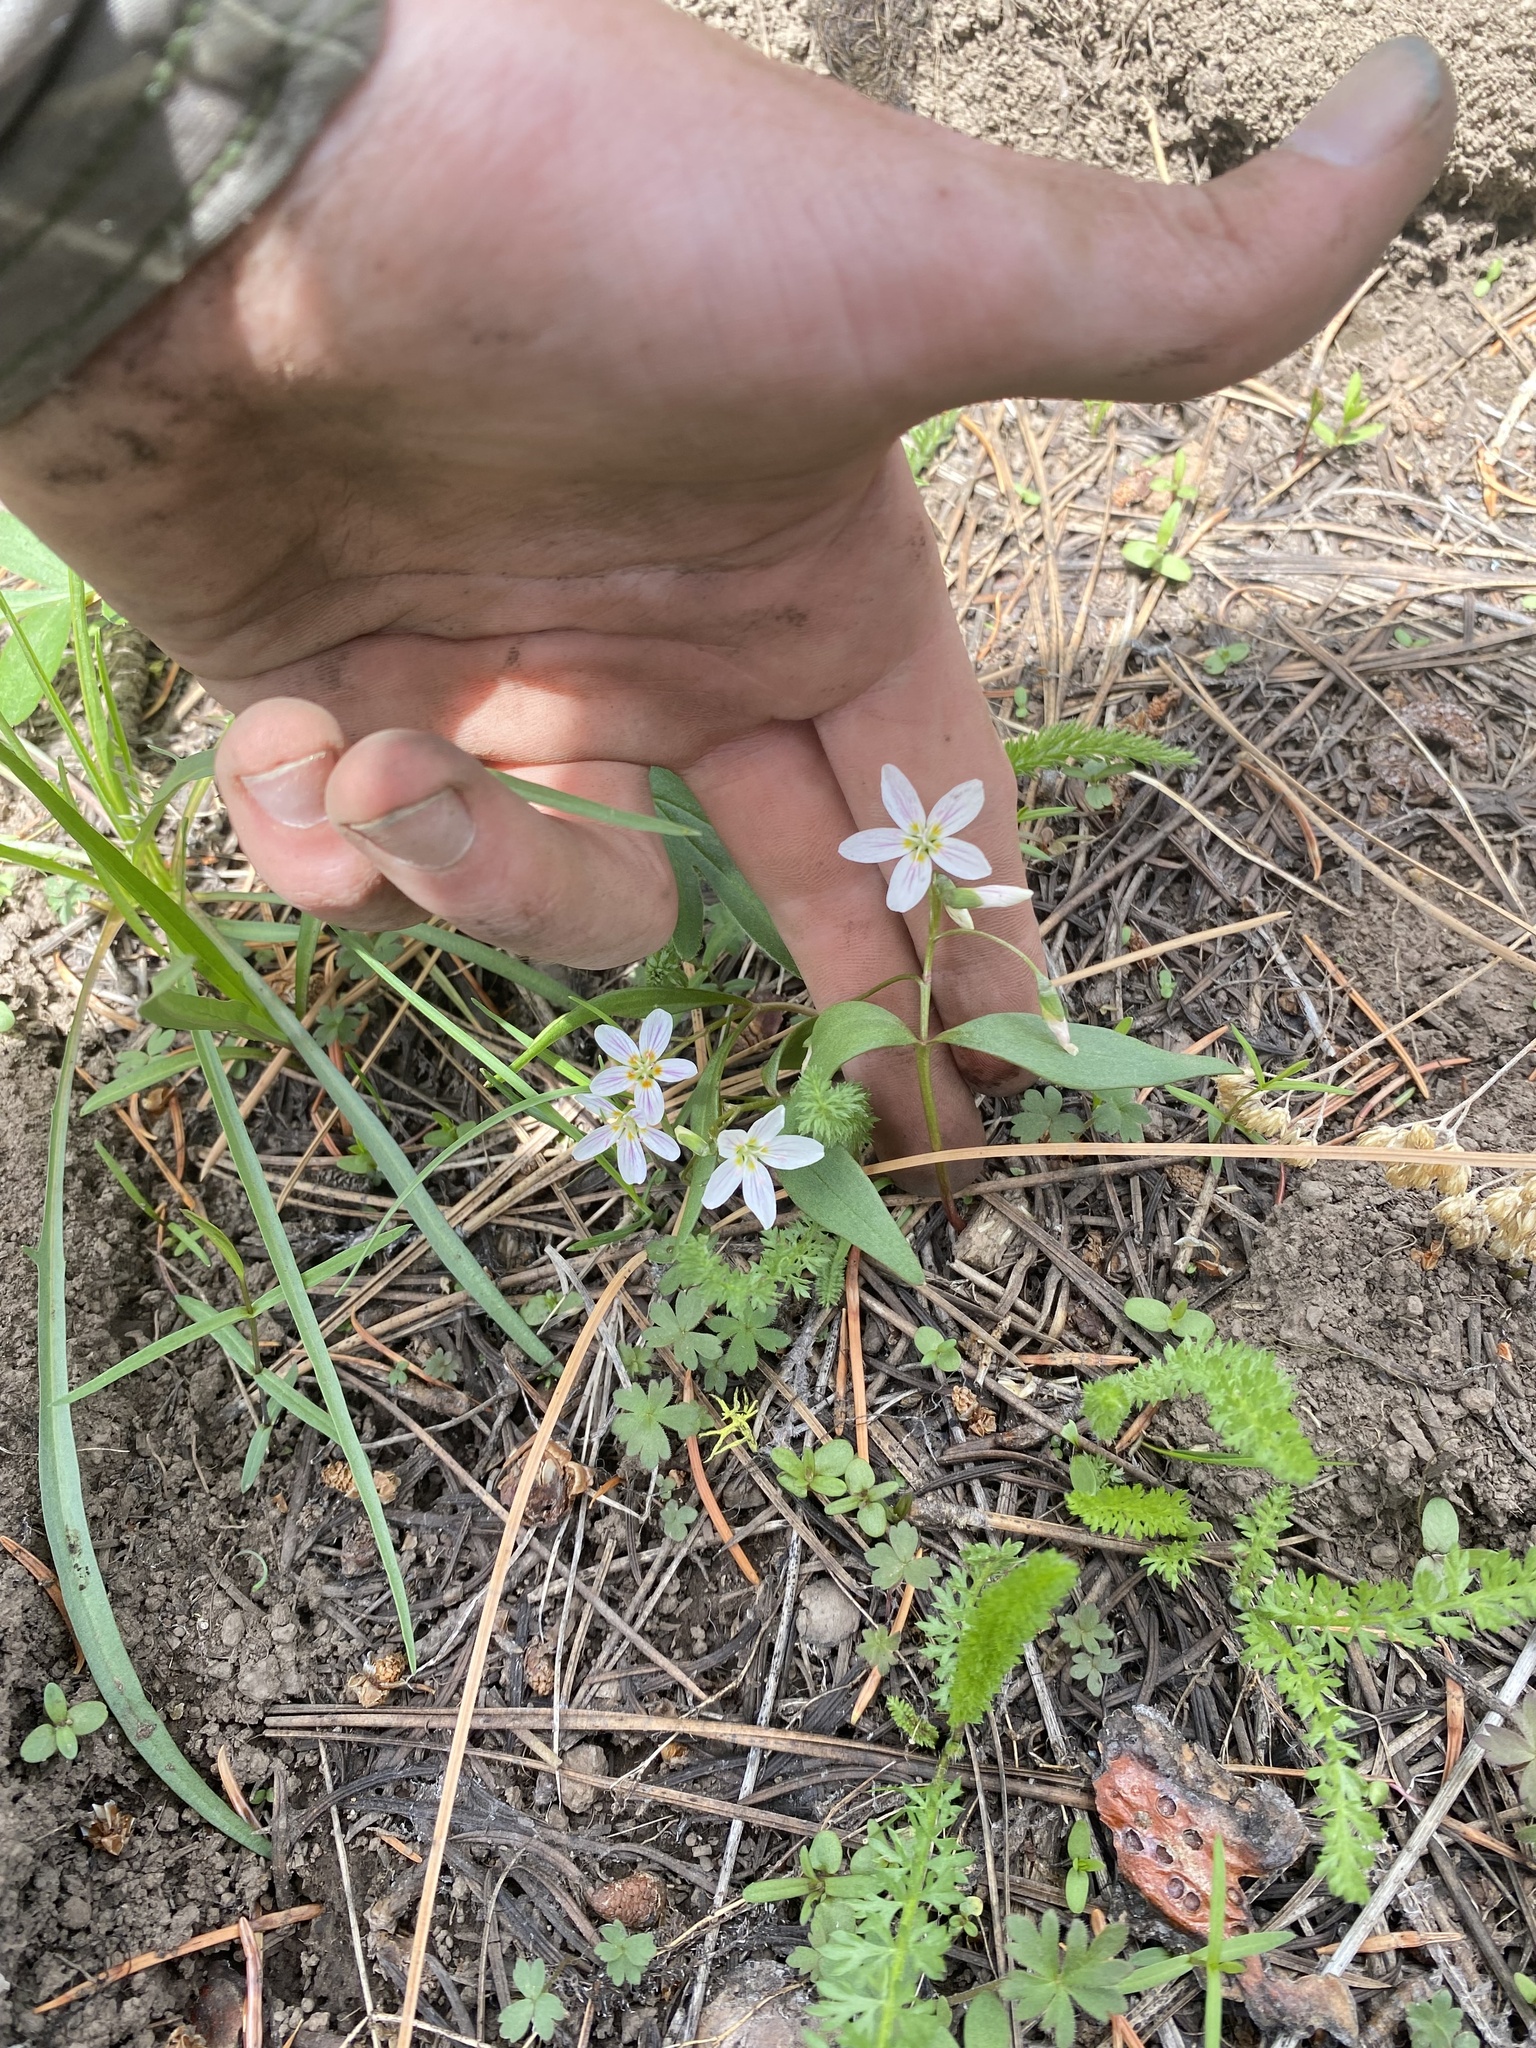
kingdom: Plantae
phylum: Tracheophyta
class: Magnoliopsida
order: Caryophyllales
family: Montiaceae
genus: Claytonia
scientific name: Claytonia lanceolata
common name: Western spring-beauty
